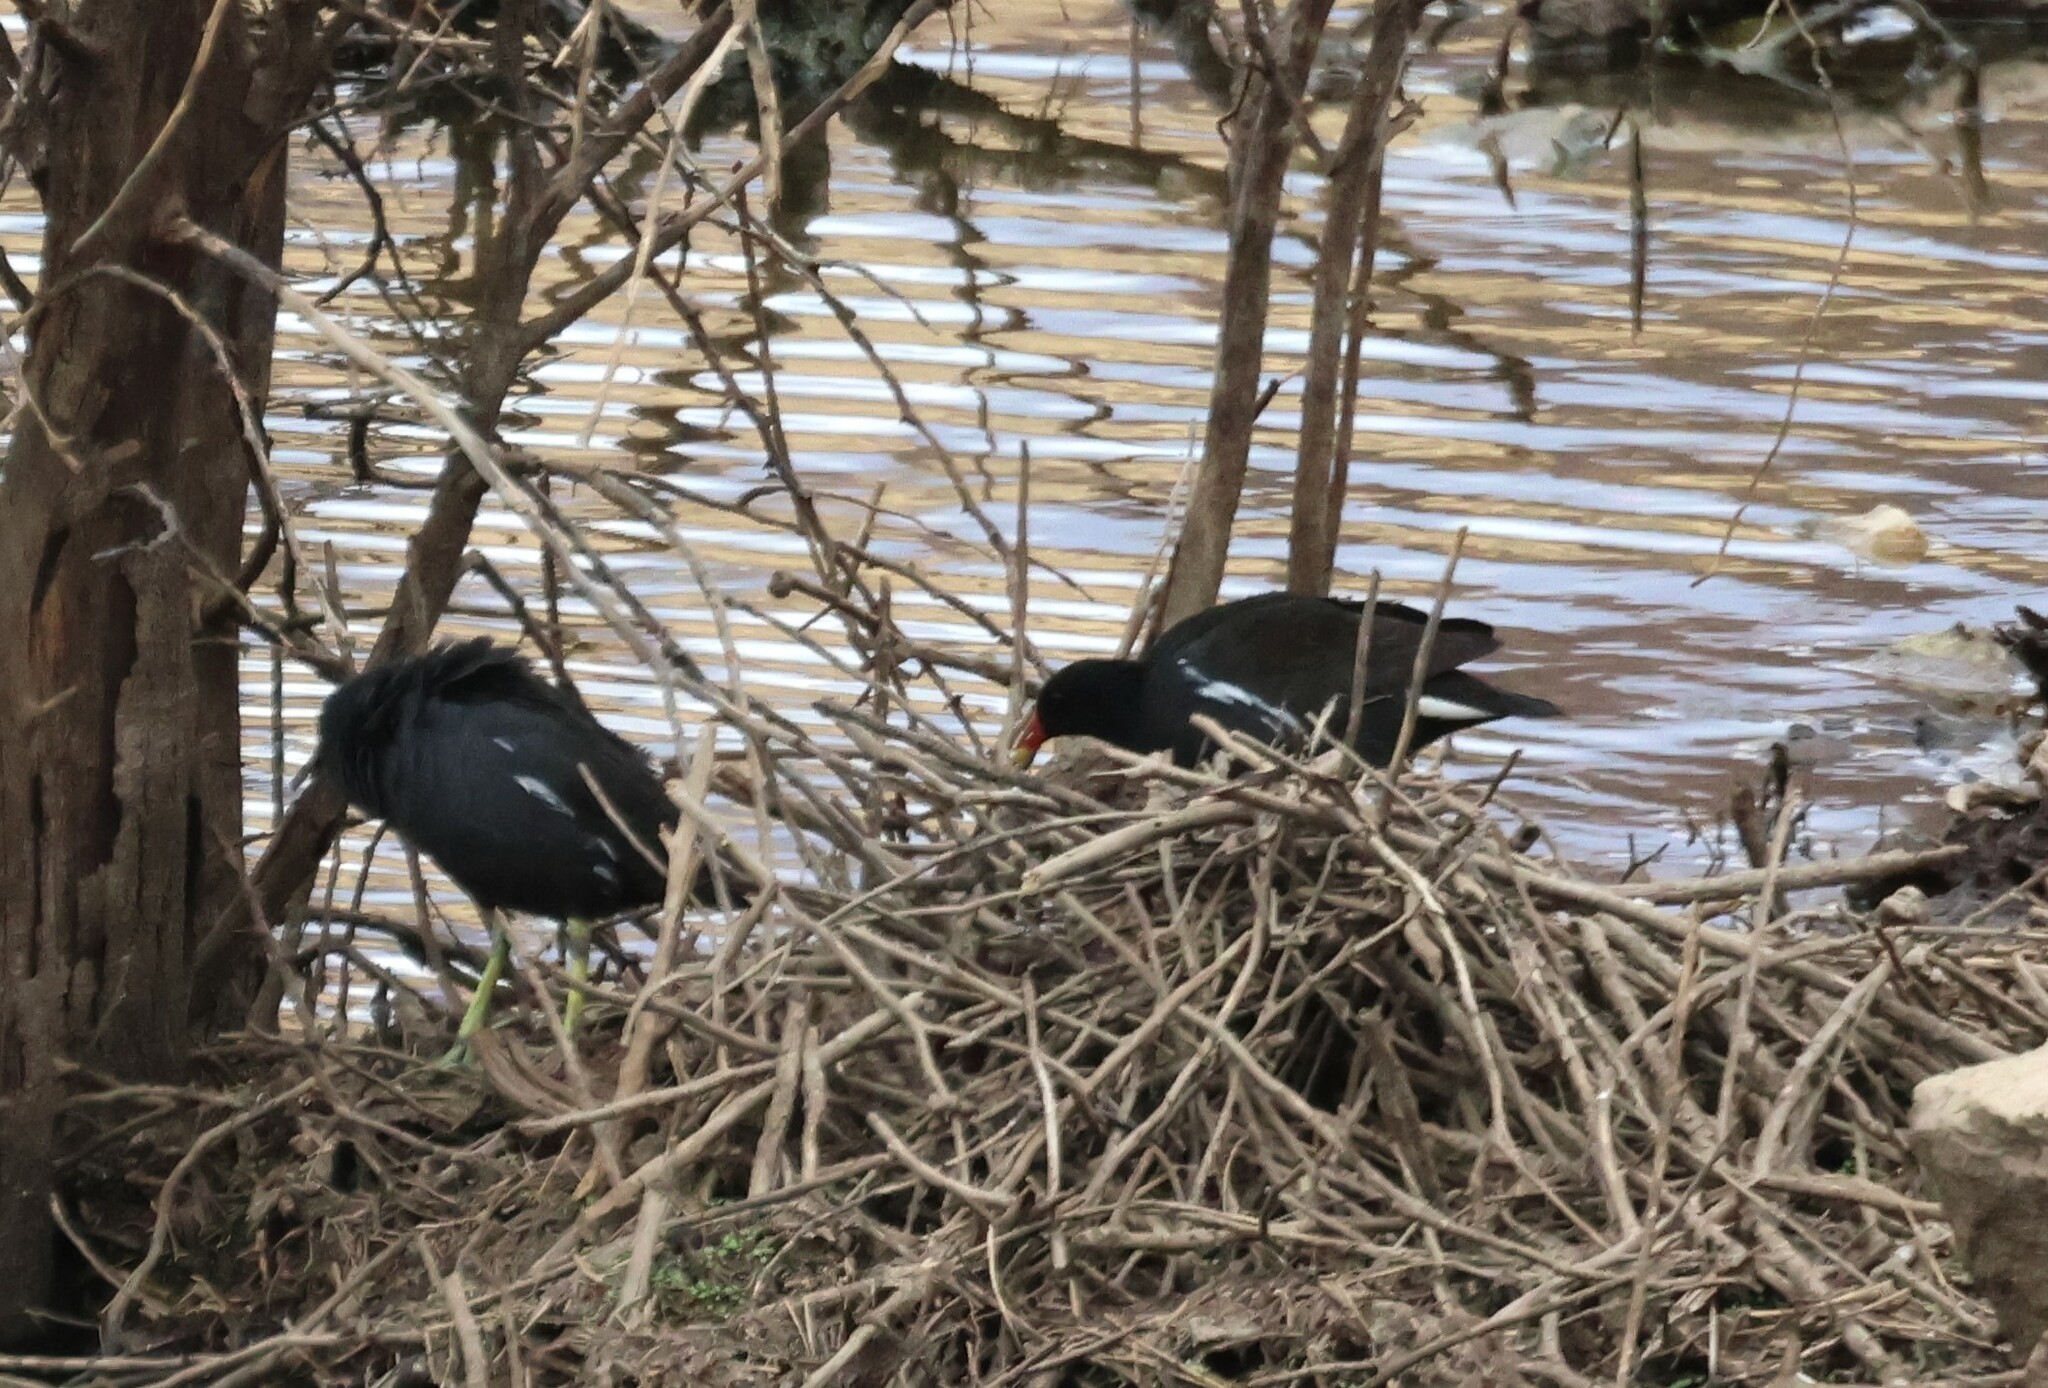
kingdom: Animalia
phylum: Chordata
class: Aves
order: Gruiformes
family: Rallidae
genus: Gallinula
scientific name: Gallinula chloropus
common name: Common moorhen
